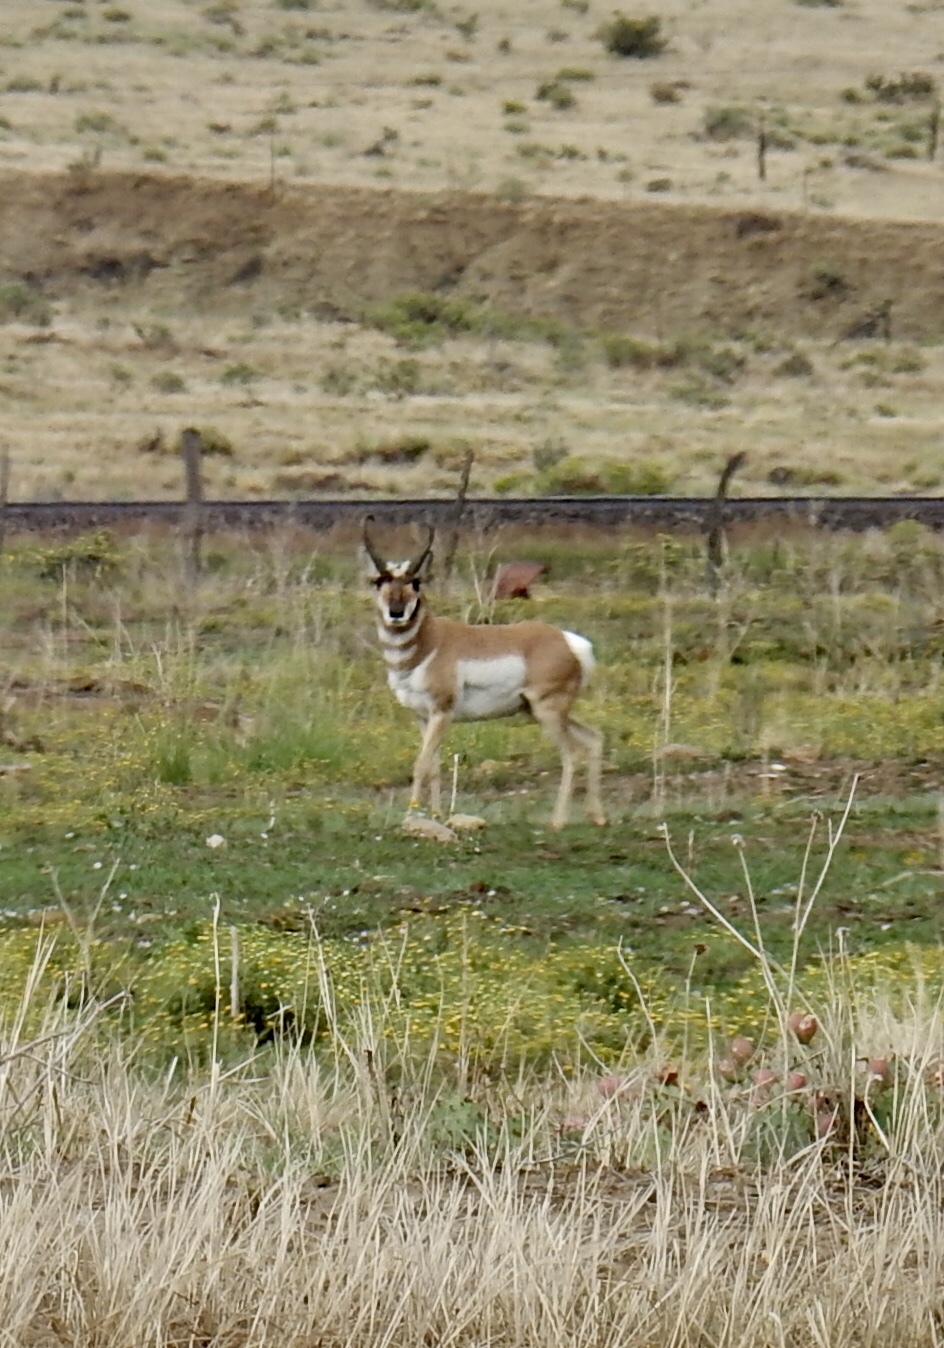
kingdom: Animalia
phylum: Chordata
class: Mammalia
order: Artiodactyla
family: Antilocapridae
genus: Antilocapra
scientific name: Antilocapra americana
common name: Pronghorn
